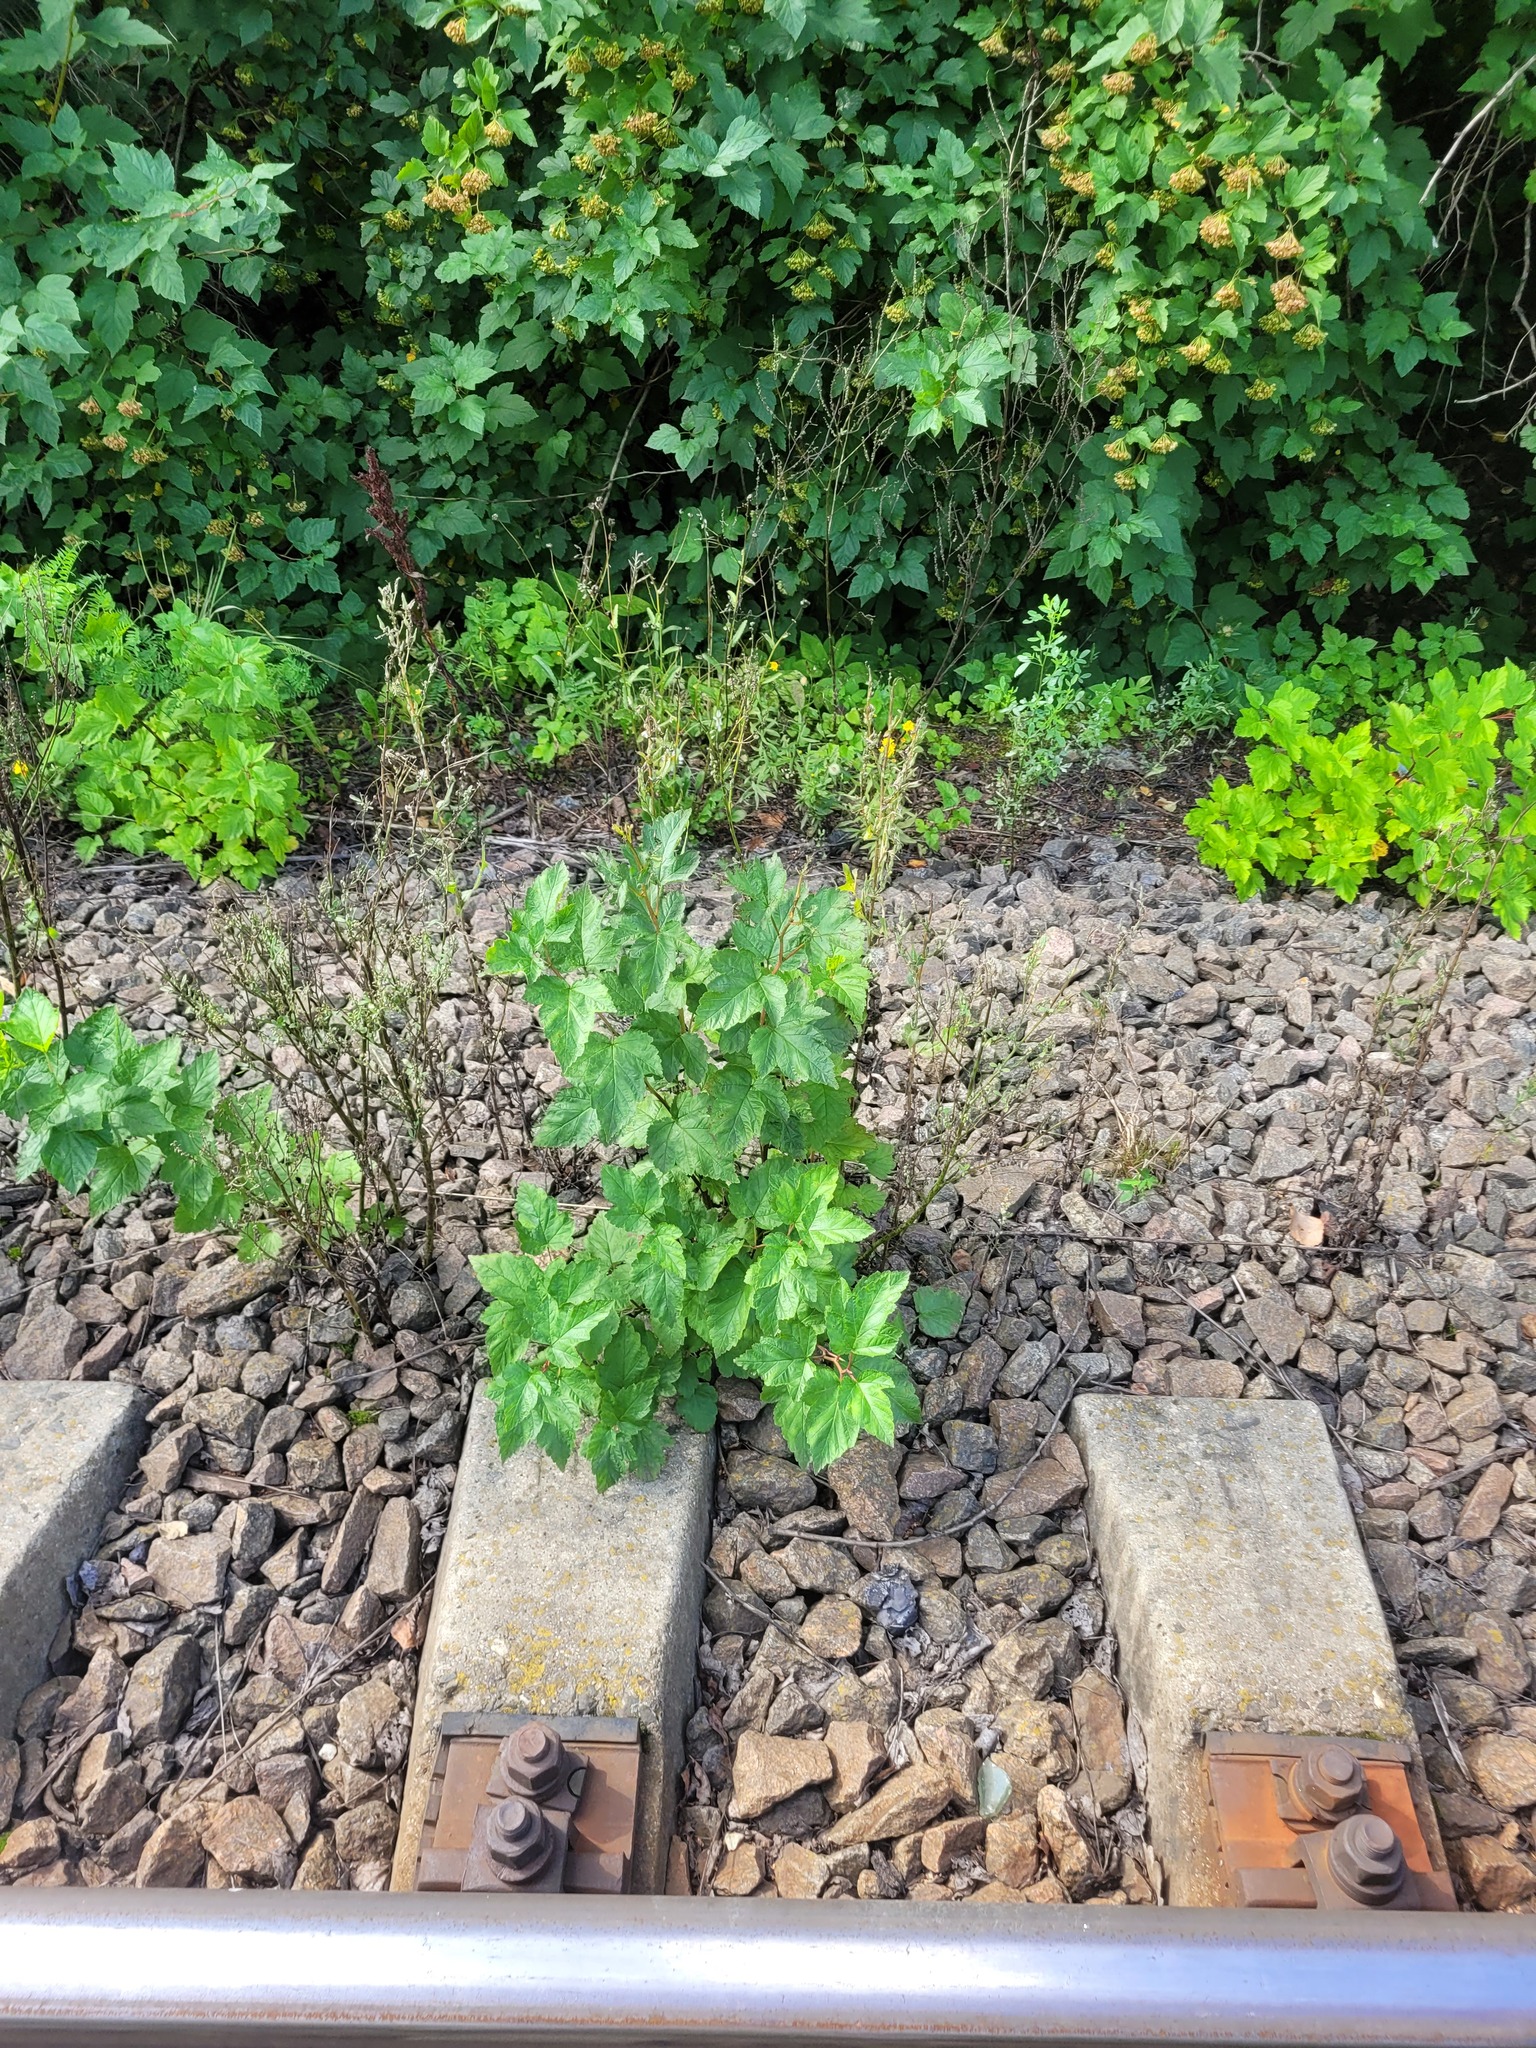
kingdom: Plantae
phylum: Tracheophyta
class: Magnoliopsida
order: Rosales
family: Rosaceae
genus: Physocarpus
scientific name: Physocarpus opulifolius
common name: Ninebark
